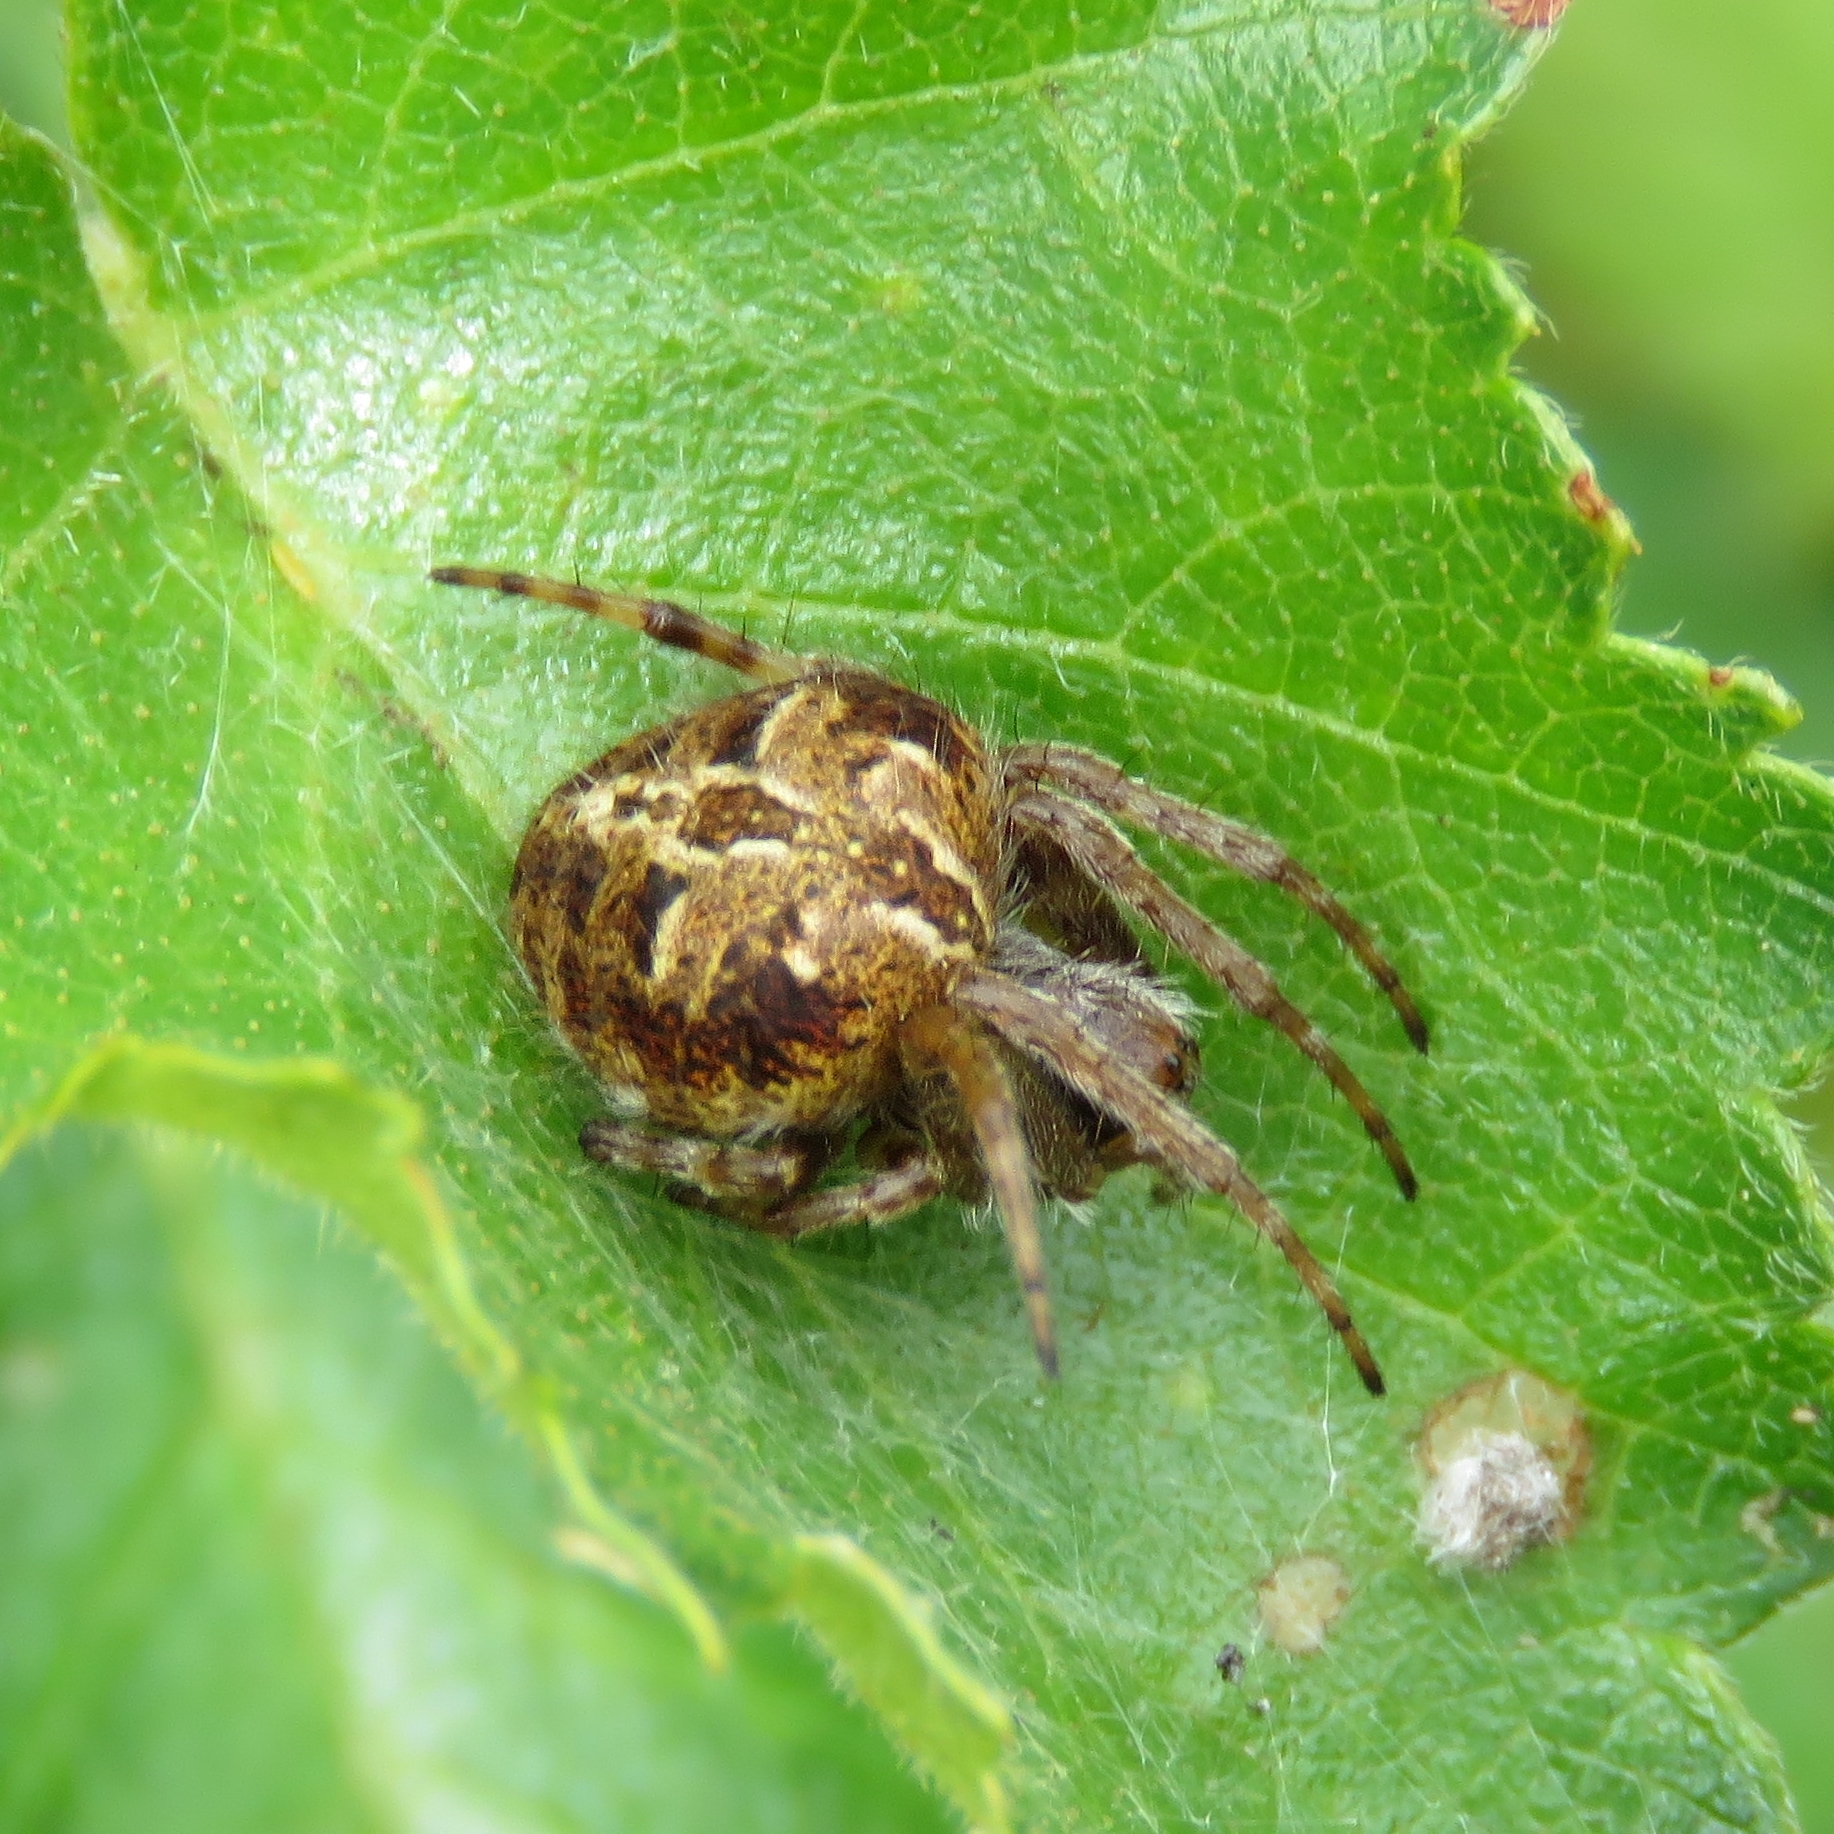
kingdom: Animalia
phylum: Arthropoda
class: Arachnida
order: Araneae
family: Araneidae
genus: Agalenatea
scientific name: Agalenatea redii
